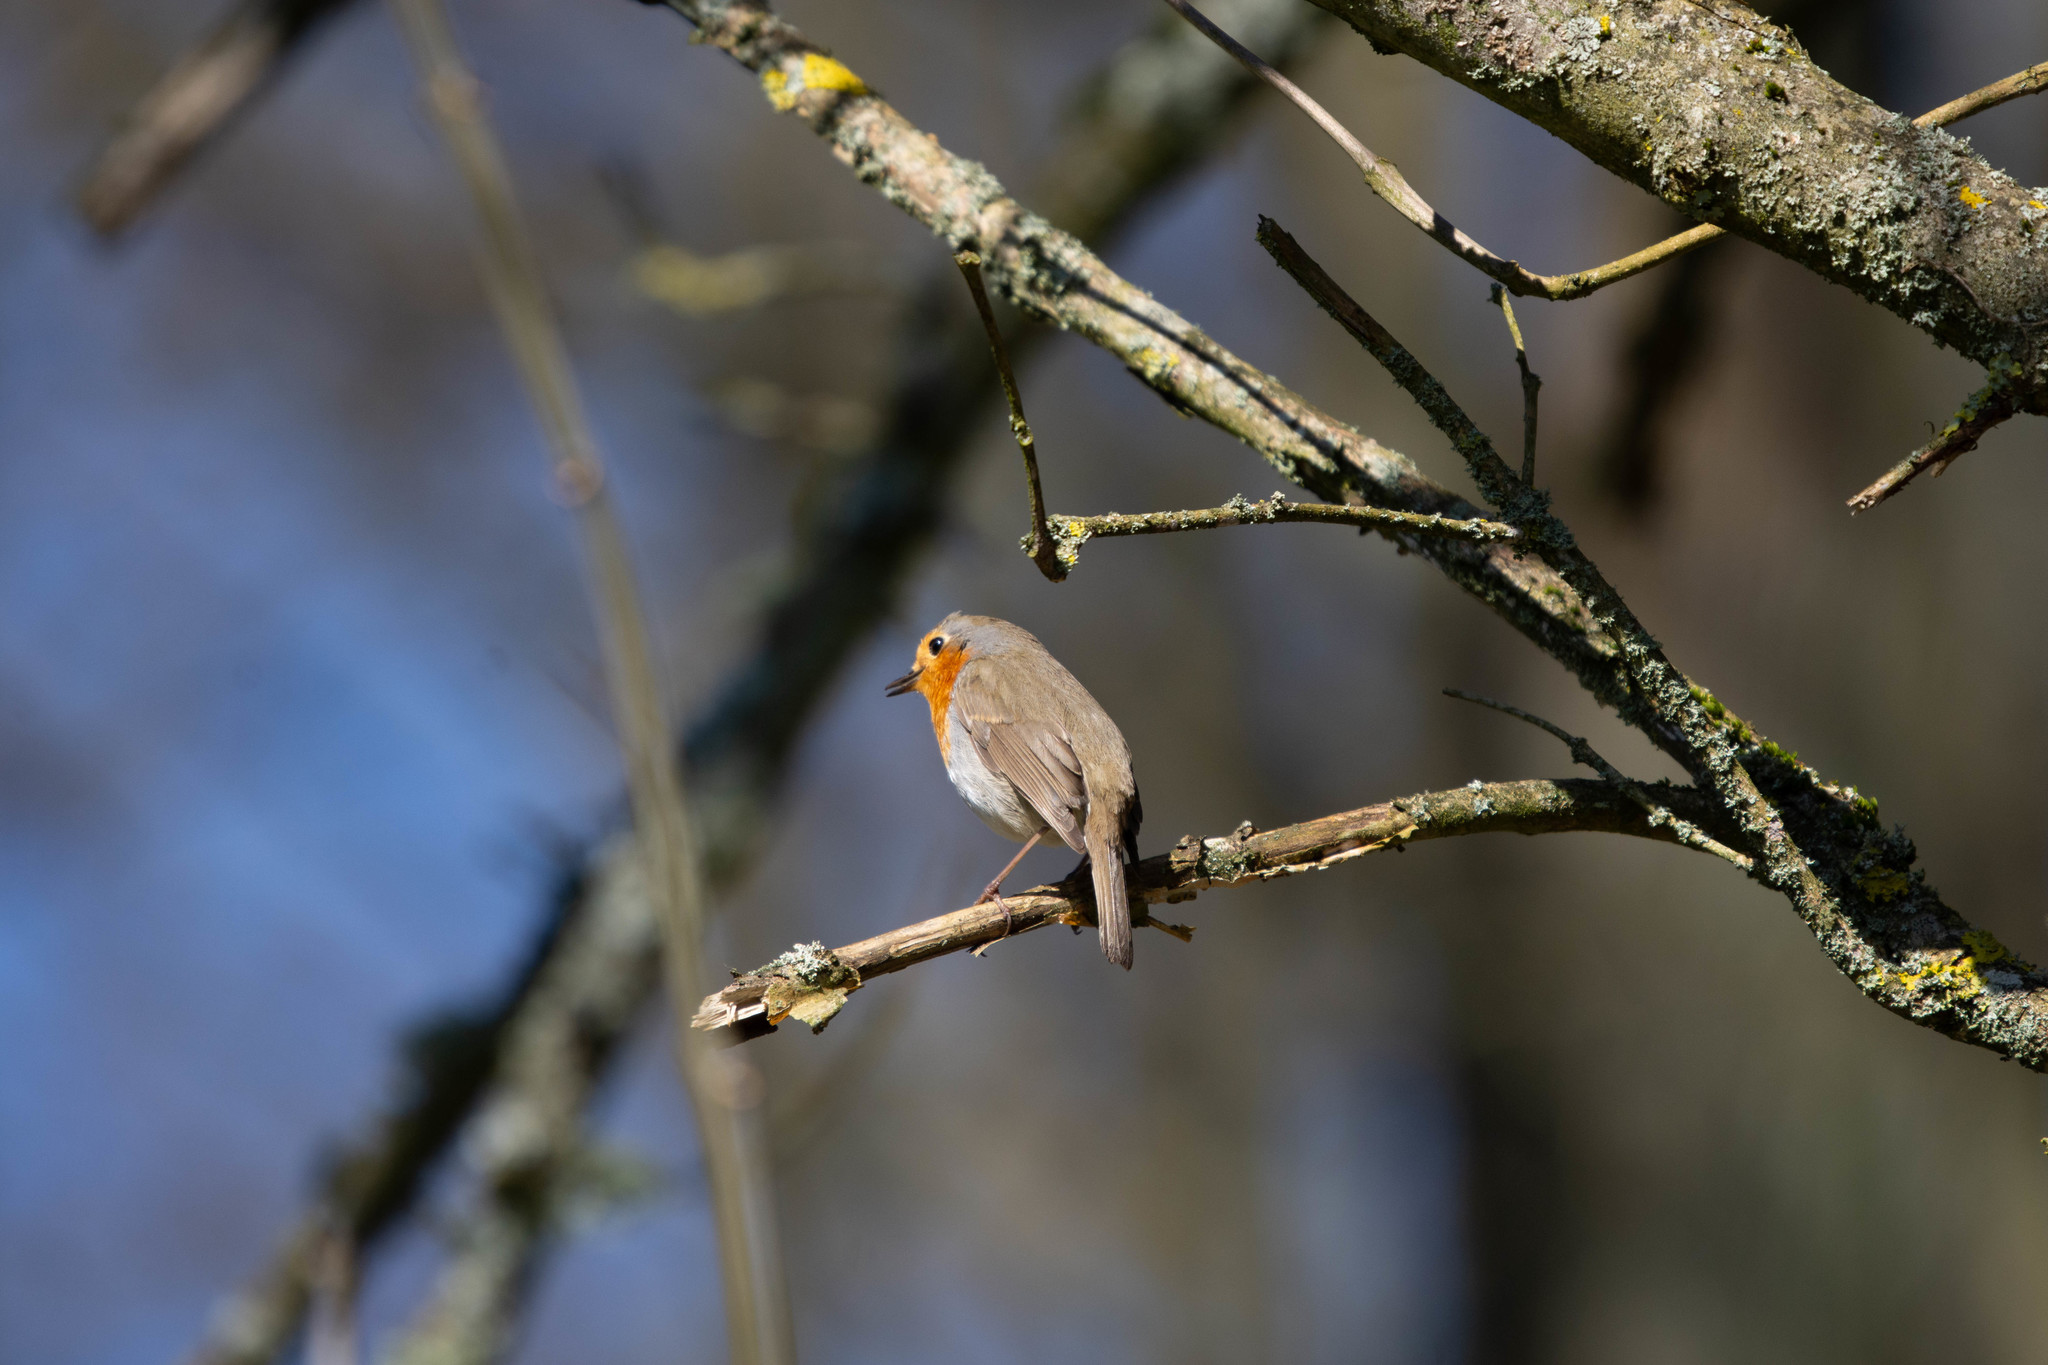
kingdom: Animalia
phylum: Chordata
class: Aves
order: Passeriformes
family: Muscicapidae
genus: Erithacus
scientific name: Erithacus rubecula
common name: European robin
